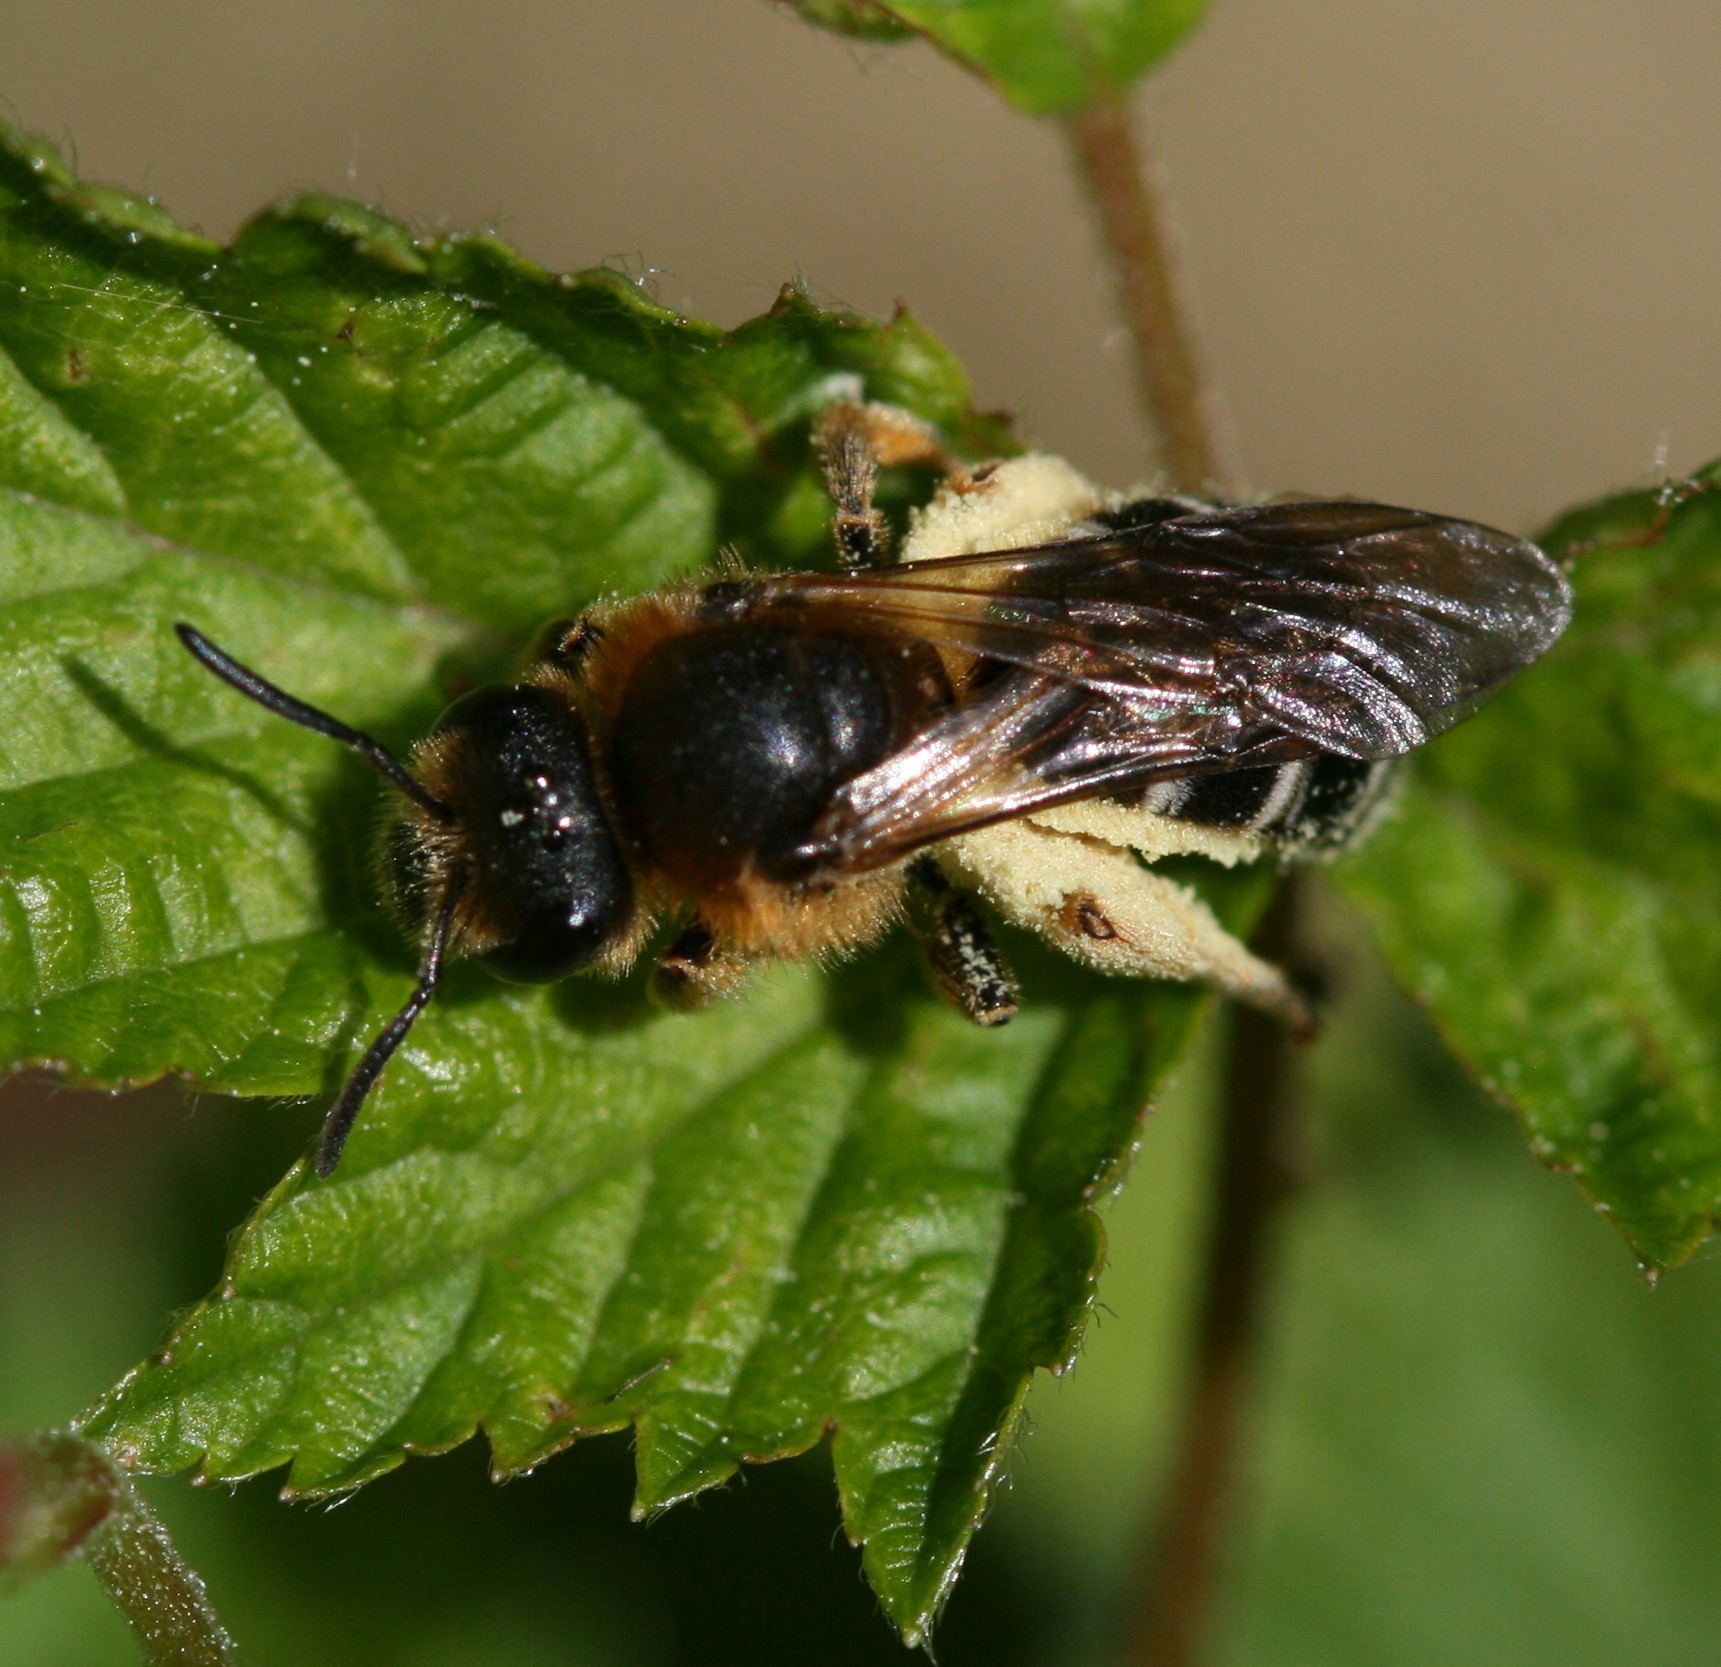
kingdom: Animalia
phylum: Arthropoda
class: Insecta
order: Hymenoptera
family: Halictidae
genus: Halictus
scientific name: Halictus rubicundus
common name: Orange-legged furrow bee
